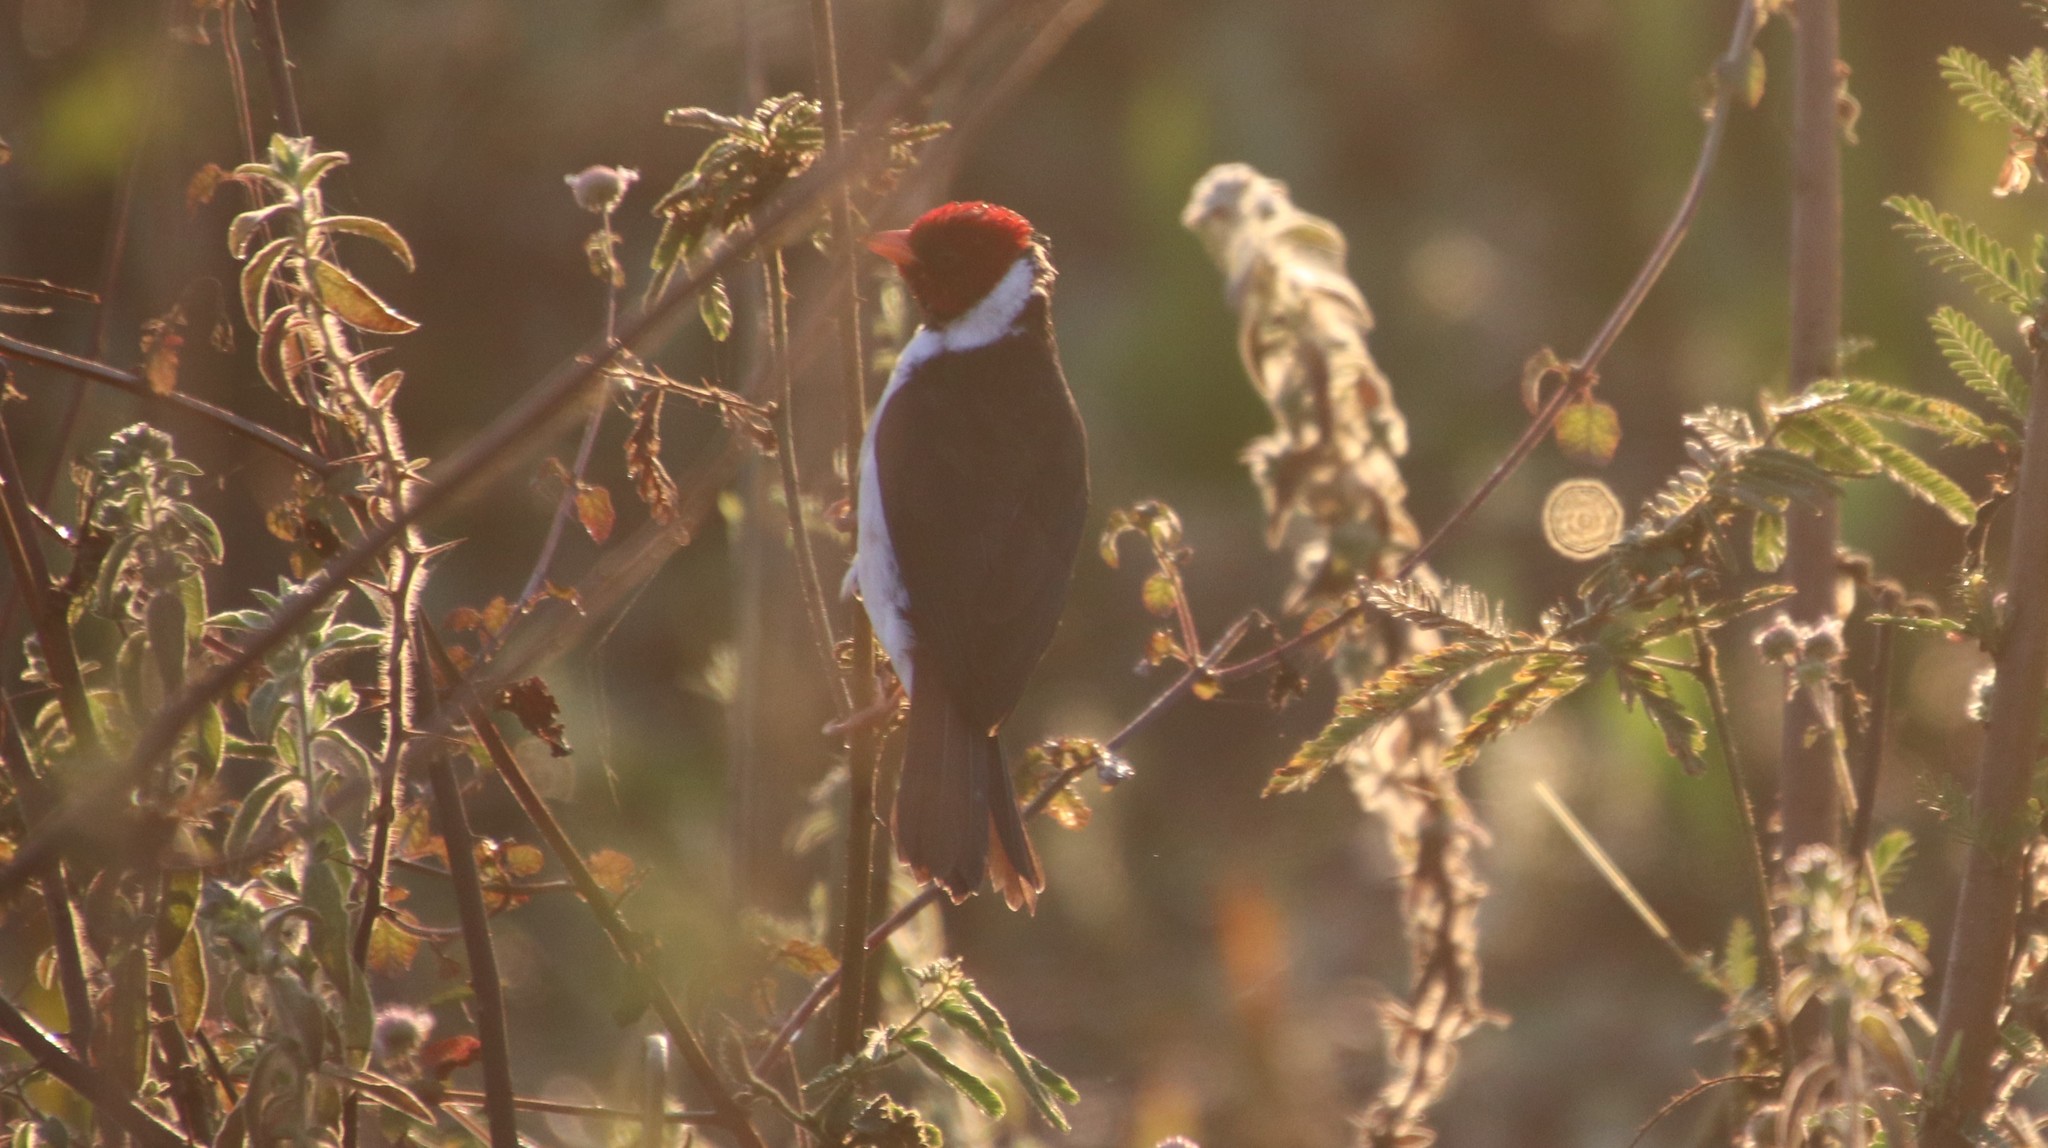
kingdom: Animalia
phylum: Chordata
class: Aves
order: Passeriformes
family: Thraupidae
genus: Paroaria
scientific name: Paroaria capitata
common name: Yellow-billed cardinal
